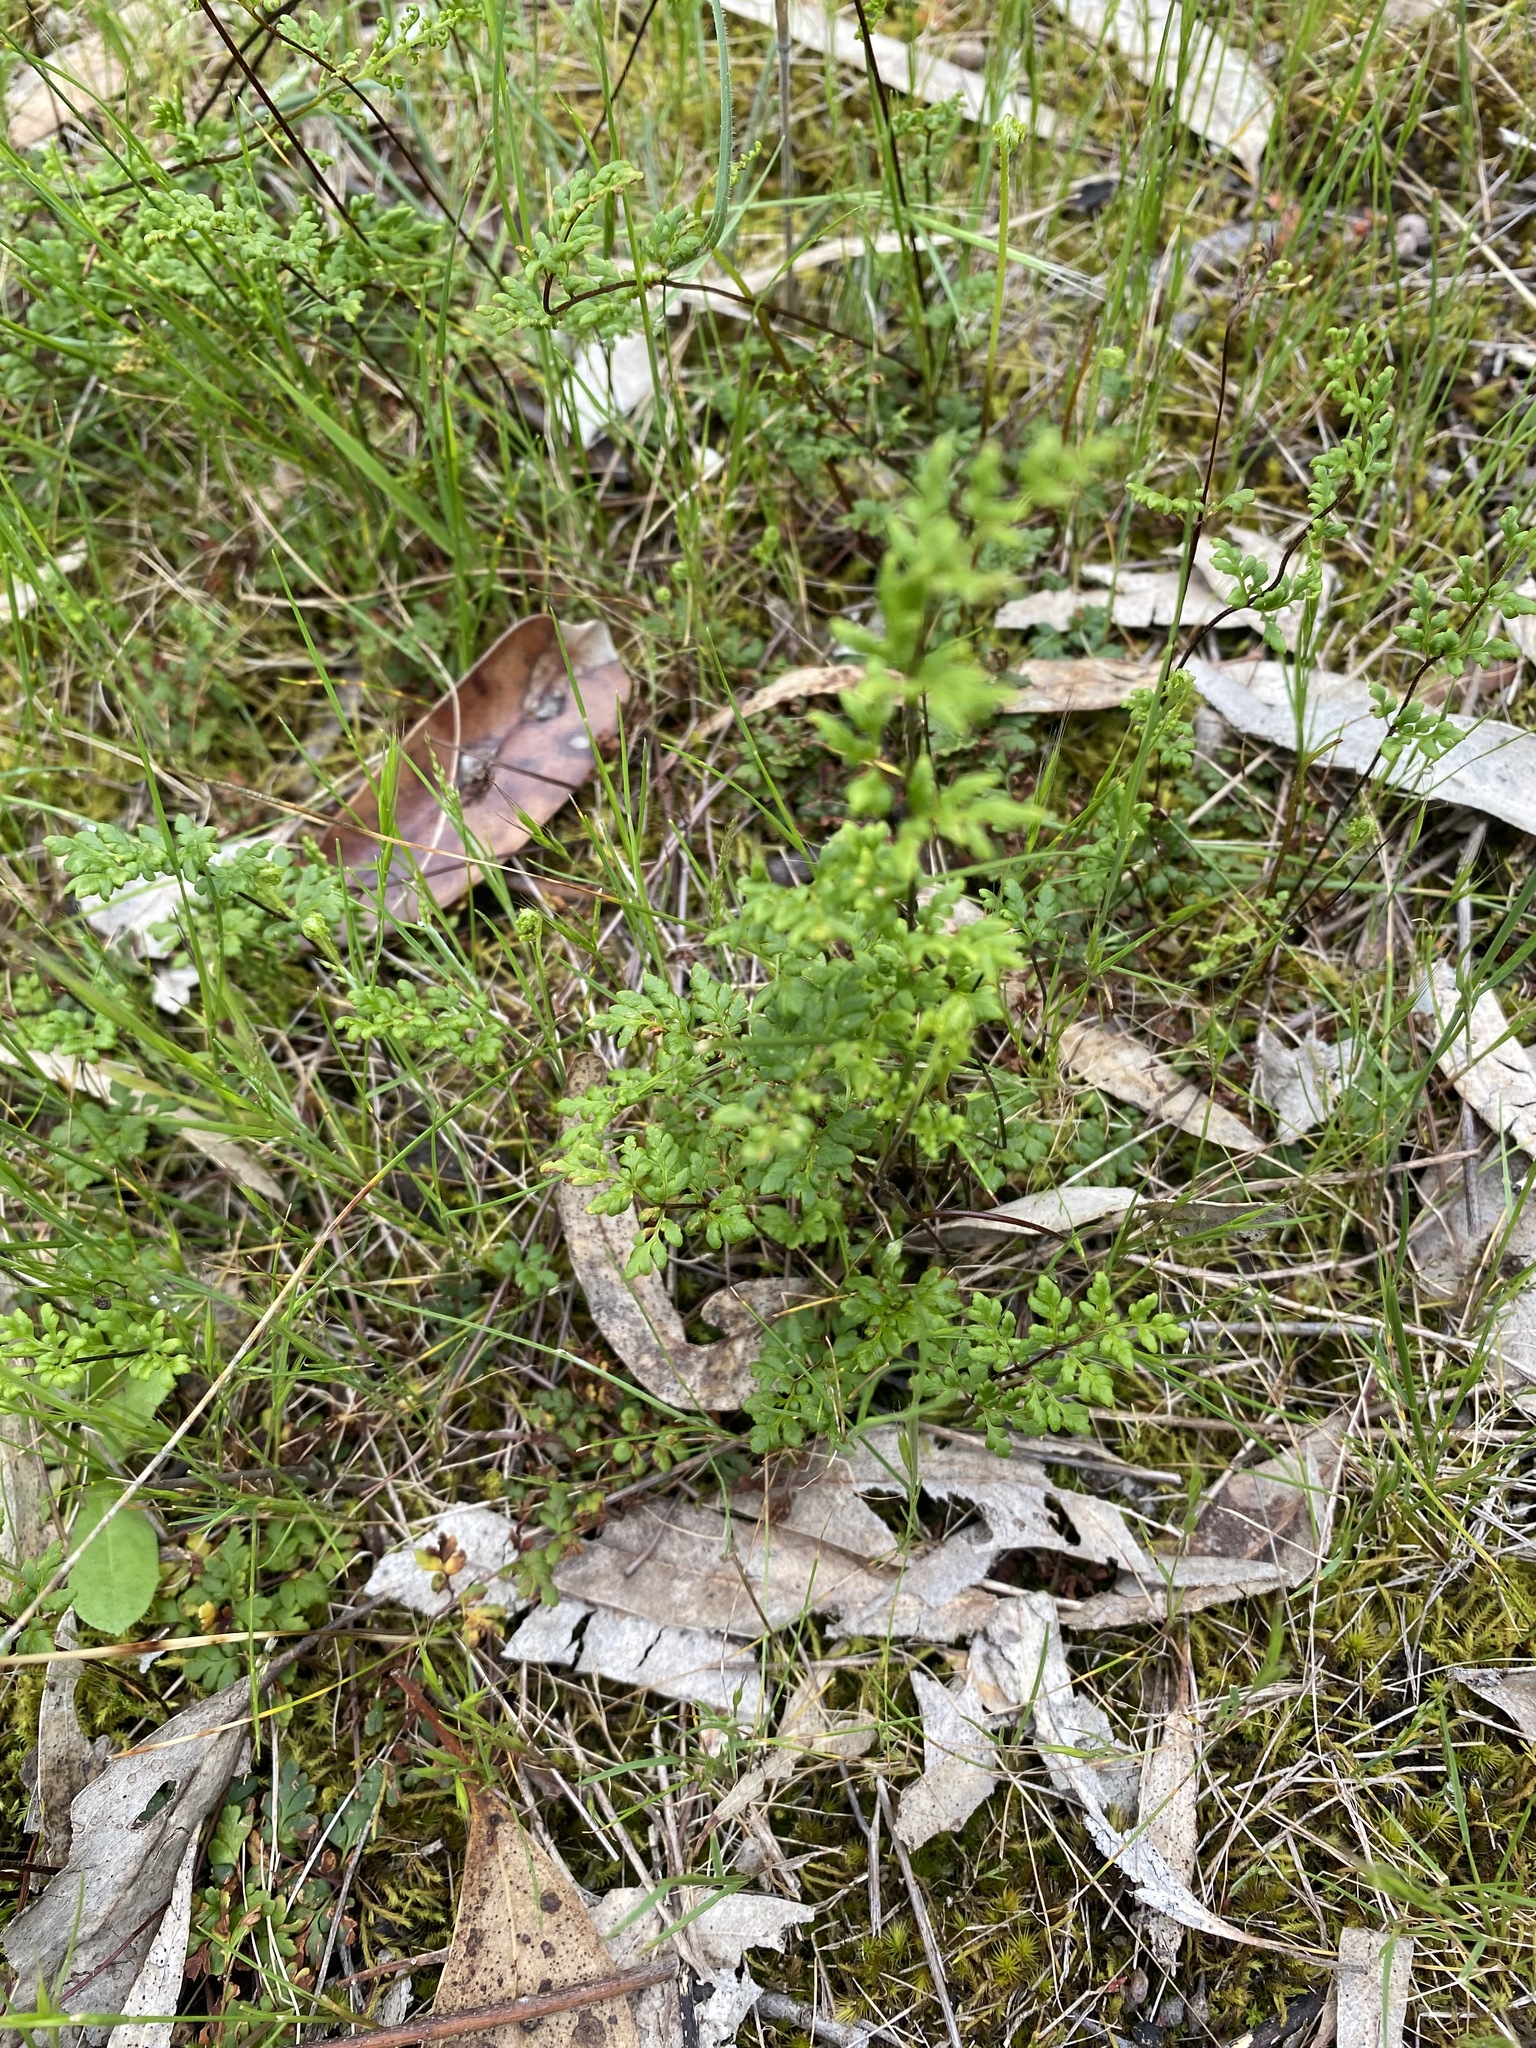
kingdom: Plantae
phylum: Tracheophyta
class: Polypodiopsida
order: Polypodiales
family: Pteridaceae
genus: Cheilanthes
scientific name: Cheilanthes sieberi
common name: Mulga fern
